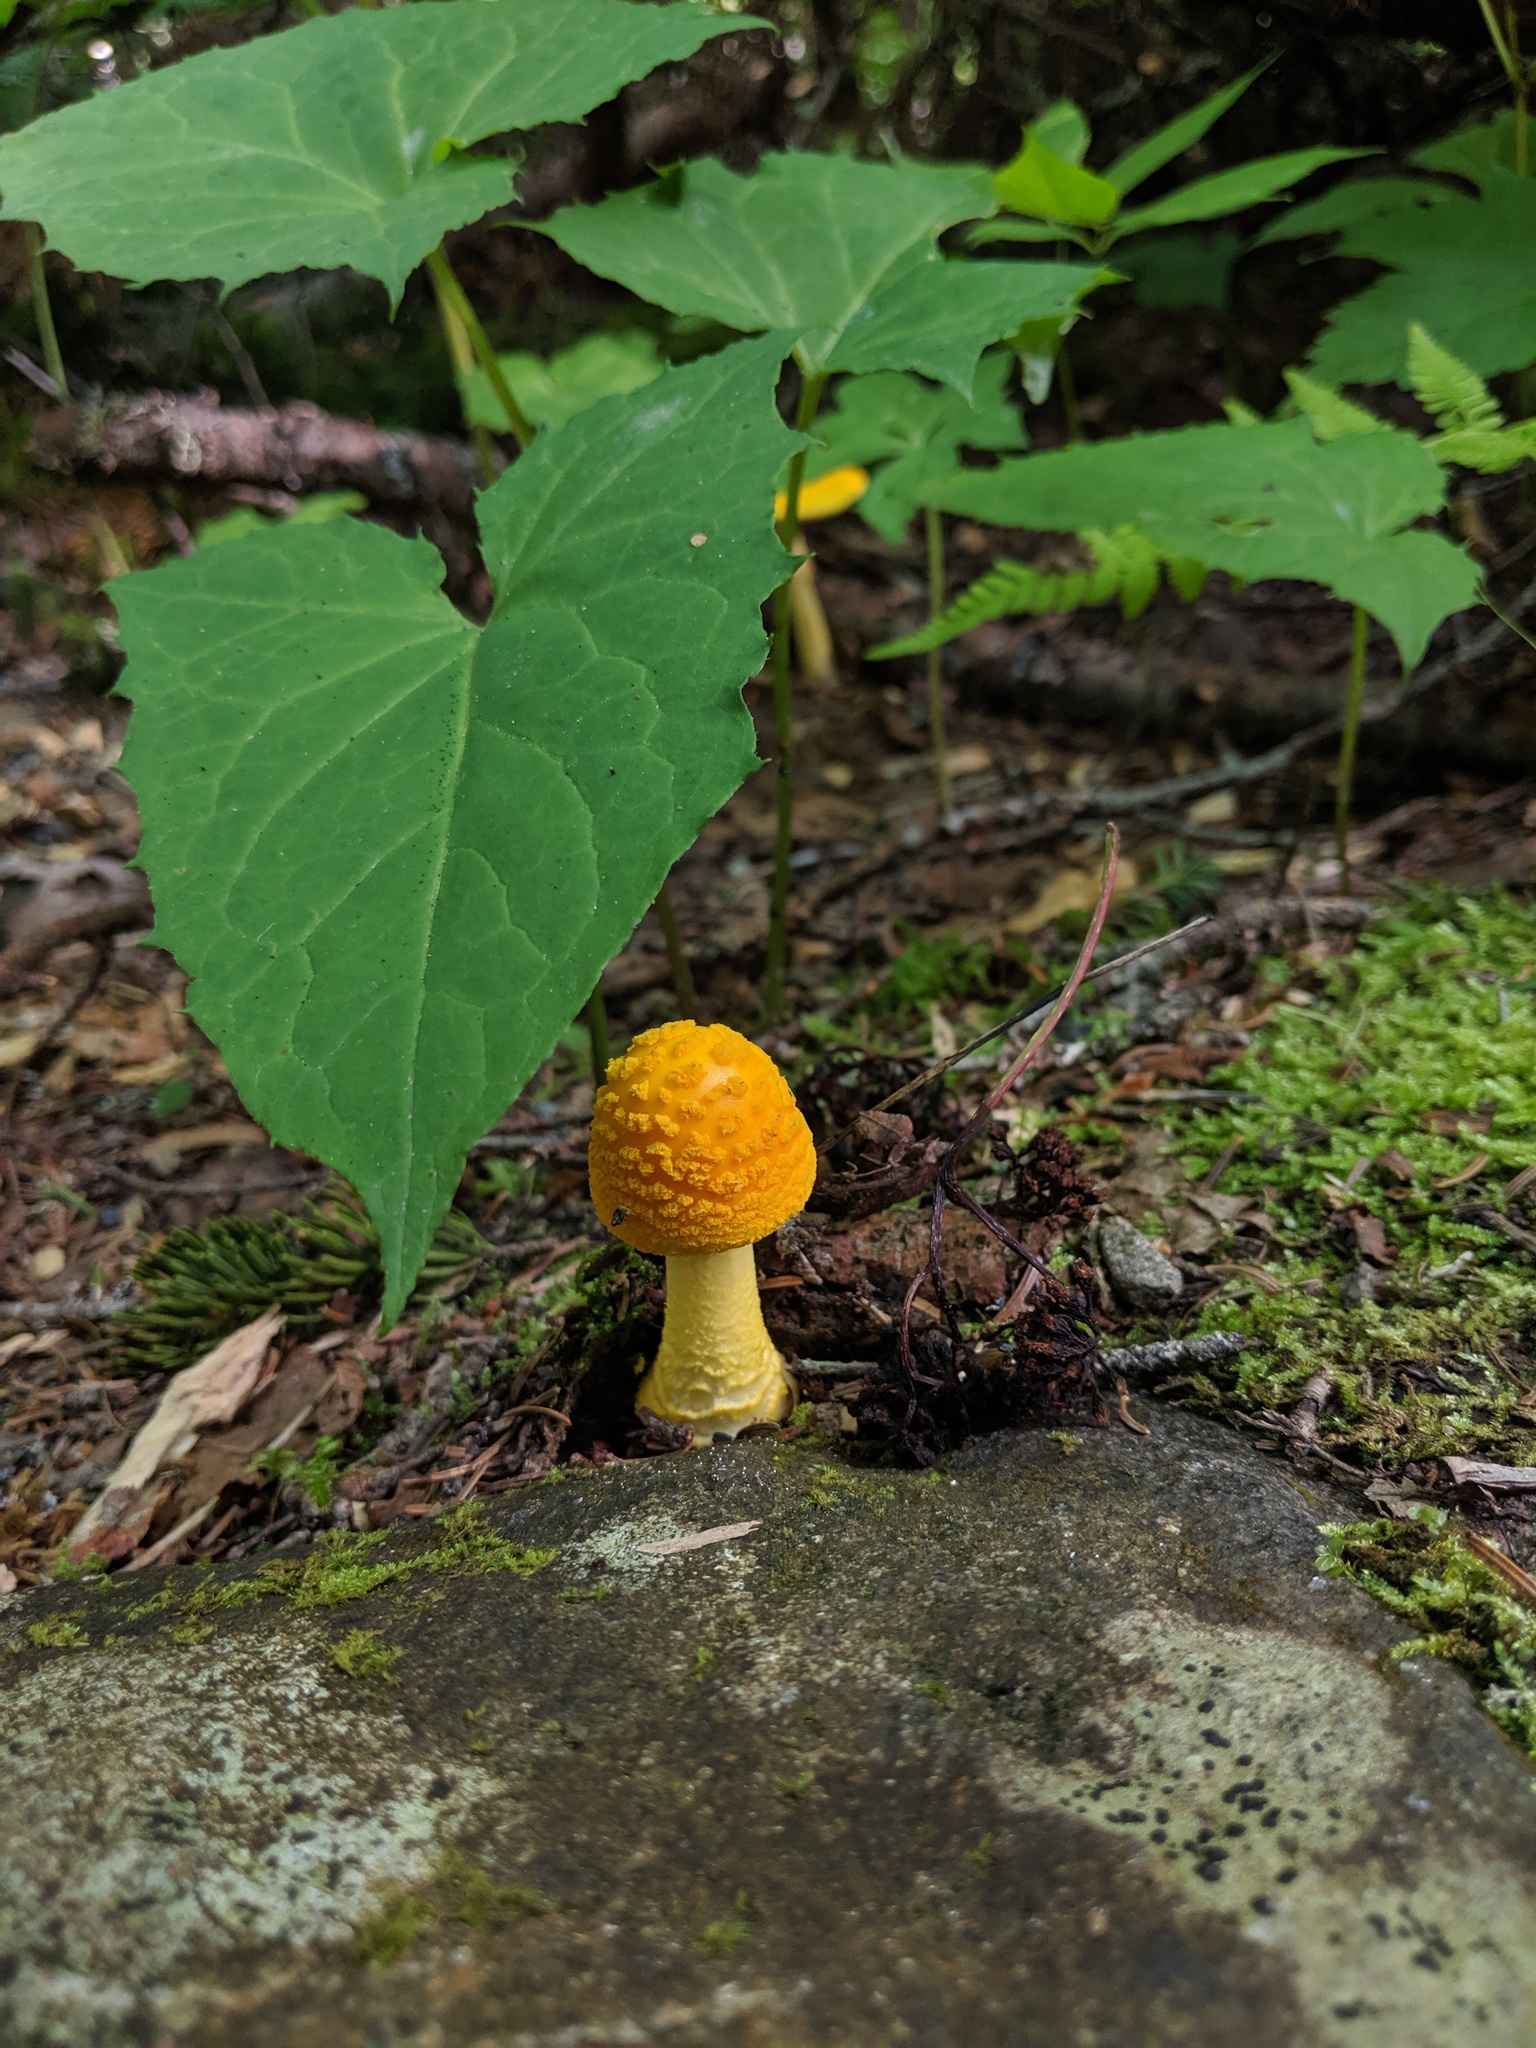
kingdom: Fungi
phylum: Basidiomycota
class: Agaricomycetes
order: Agaricales
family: Amanitaceae
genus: Amanita
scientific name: Amanita flavoconia
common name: Yellow patches
